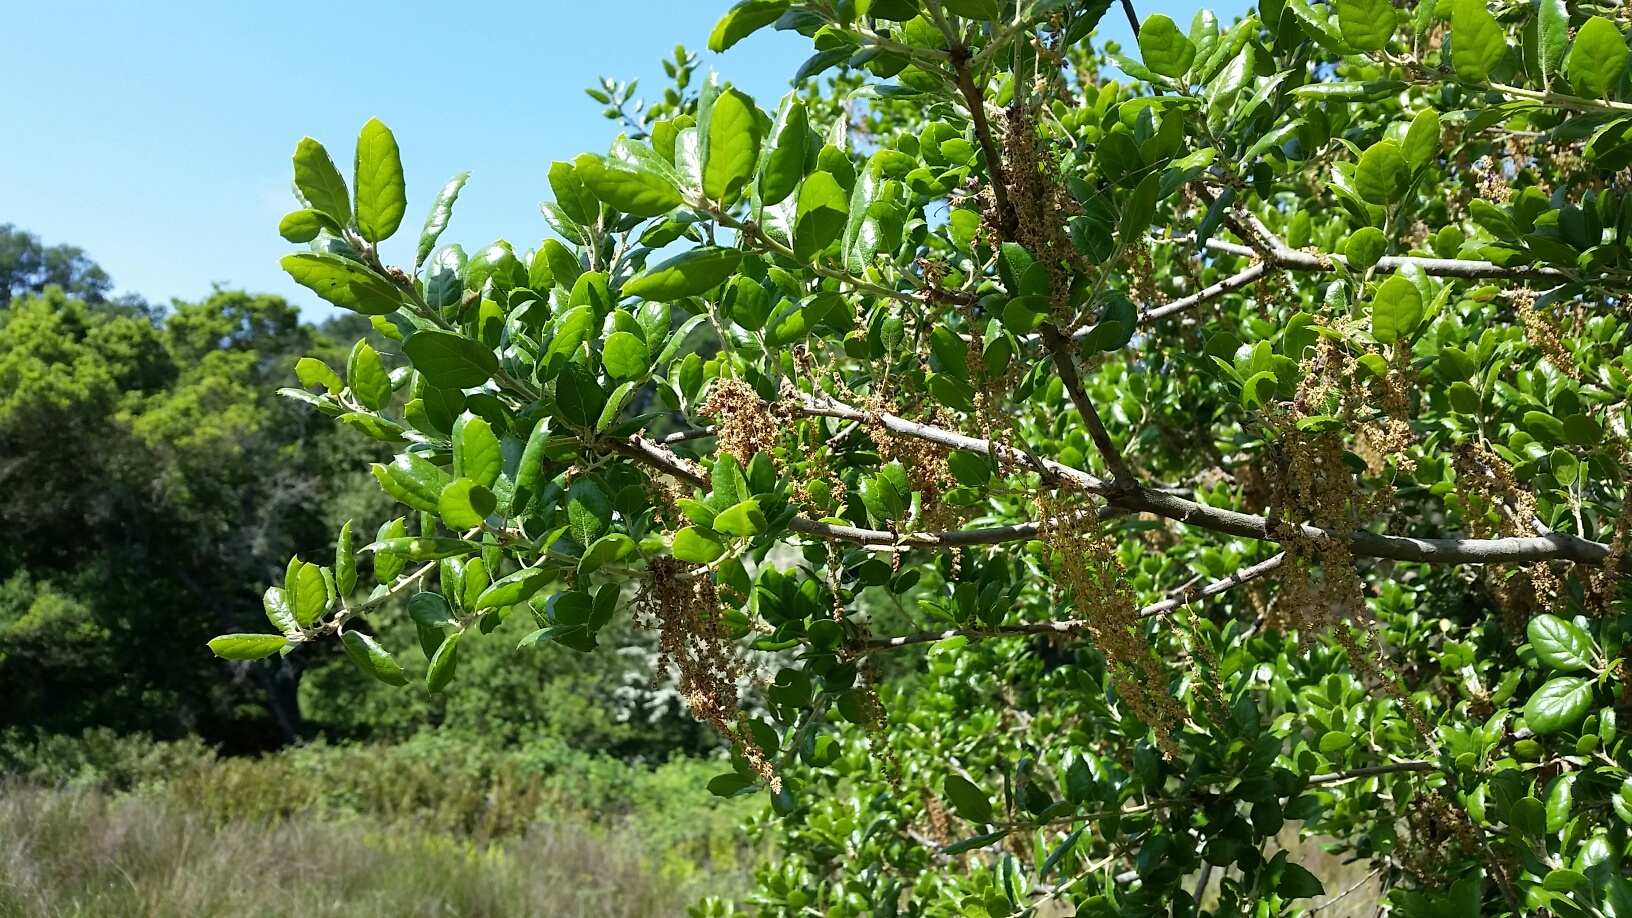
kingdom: Plantae
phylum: Tracheophyta
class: Magnoliopsida
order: Fagales
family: Fagaceae
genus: Quercus
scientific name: Quercus agrifolia
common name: California live oak
